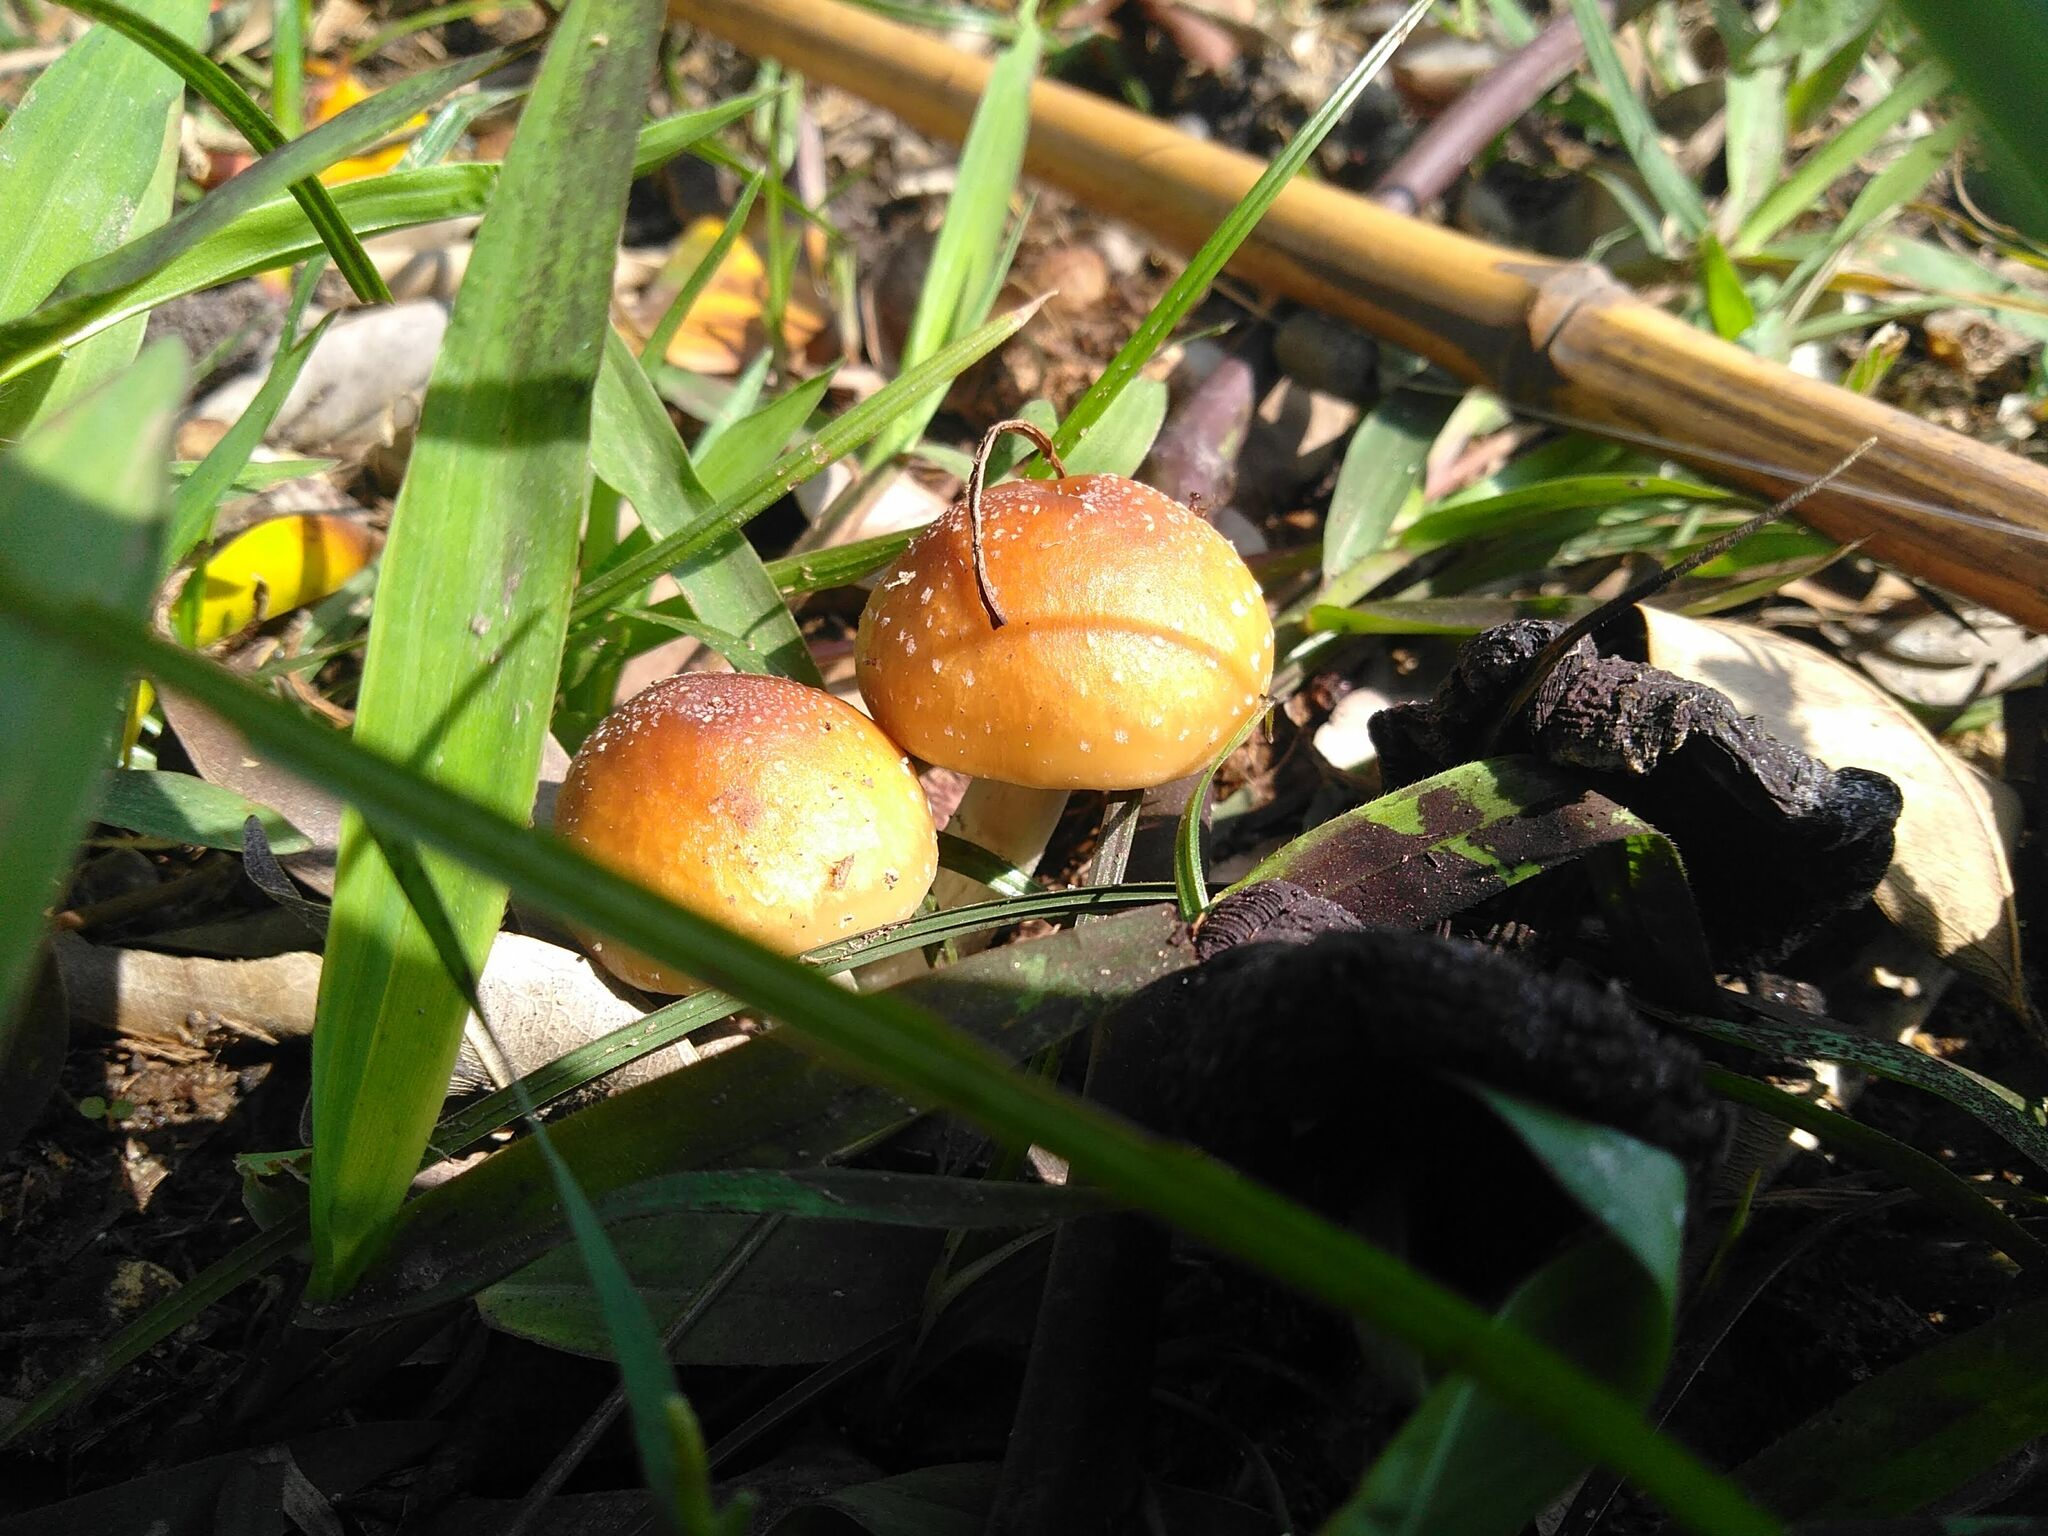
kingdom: Fungi
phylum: Basidiomycota
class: Agaricomycetes
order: Agaricales
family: Hymenogastraceae
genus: Psilocybe
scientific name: Psilocybe cubensis
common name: Golden brownie
